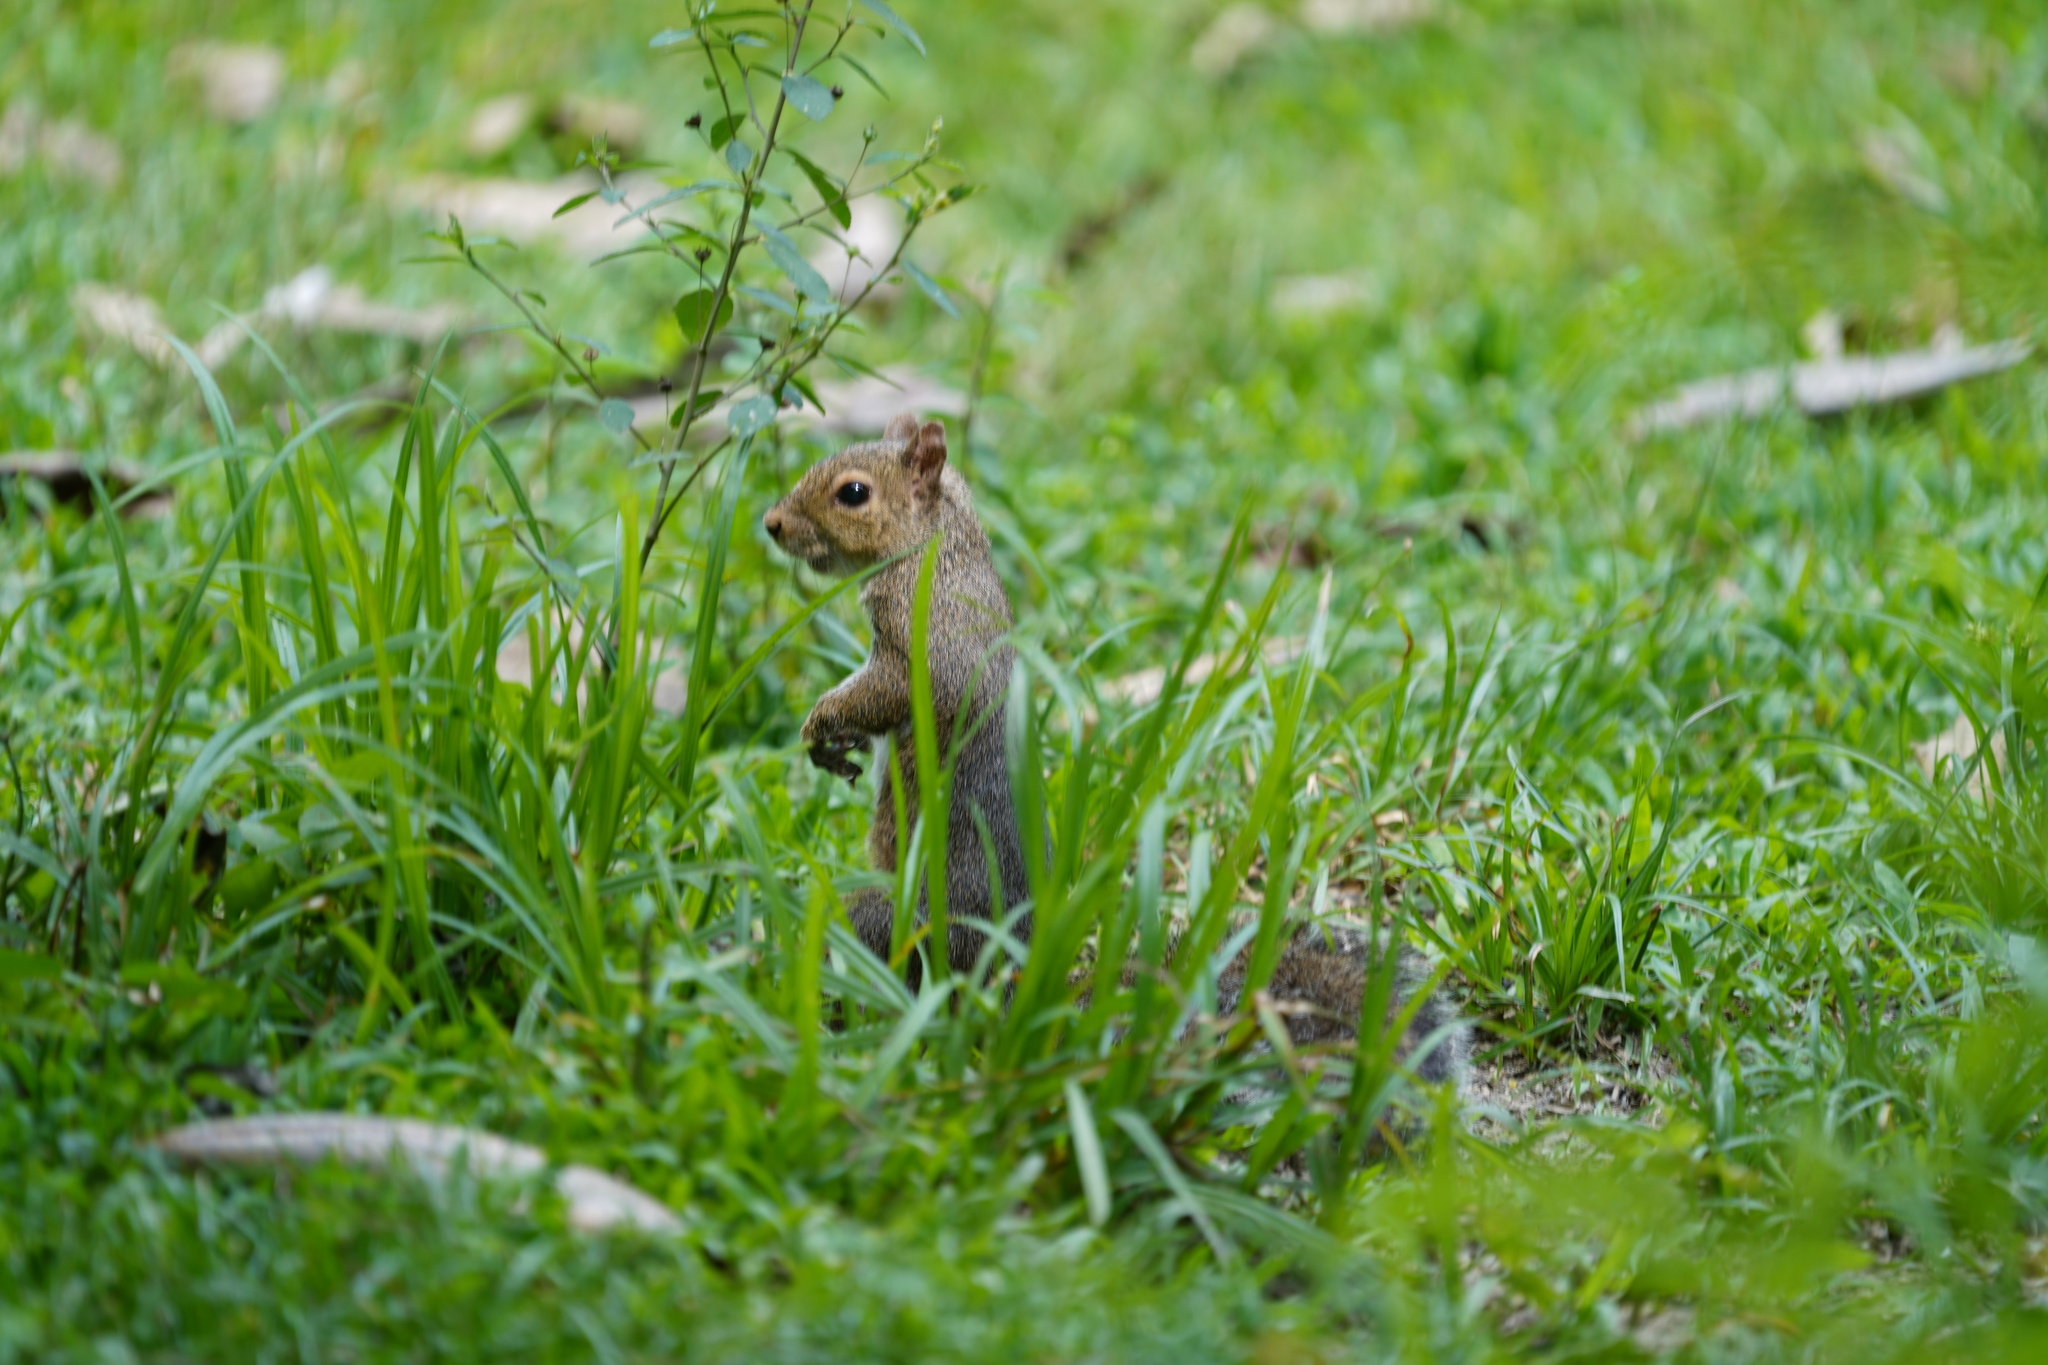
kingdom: Animalia
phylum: Chordata
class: Mammalia
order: Rodentia
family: Sciuridae
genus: Sciurus
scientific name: Sciurus carolinensis
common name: Eastern gray squirrel
